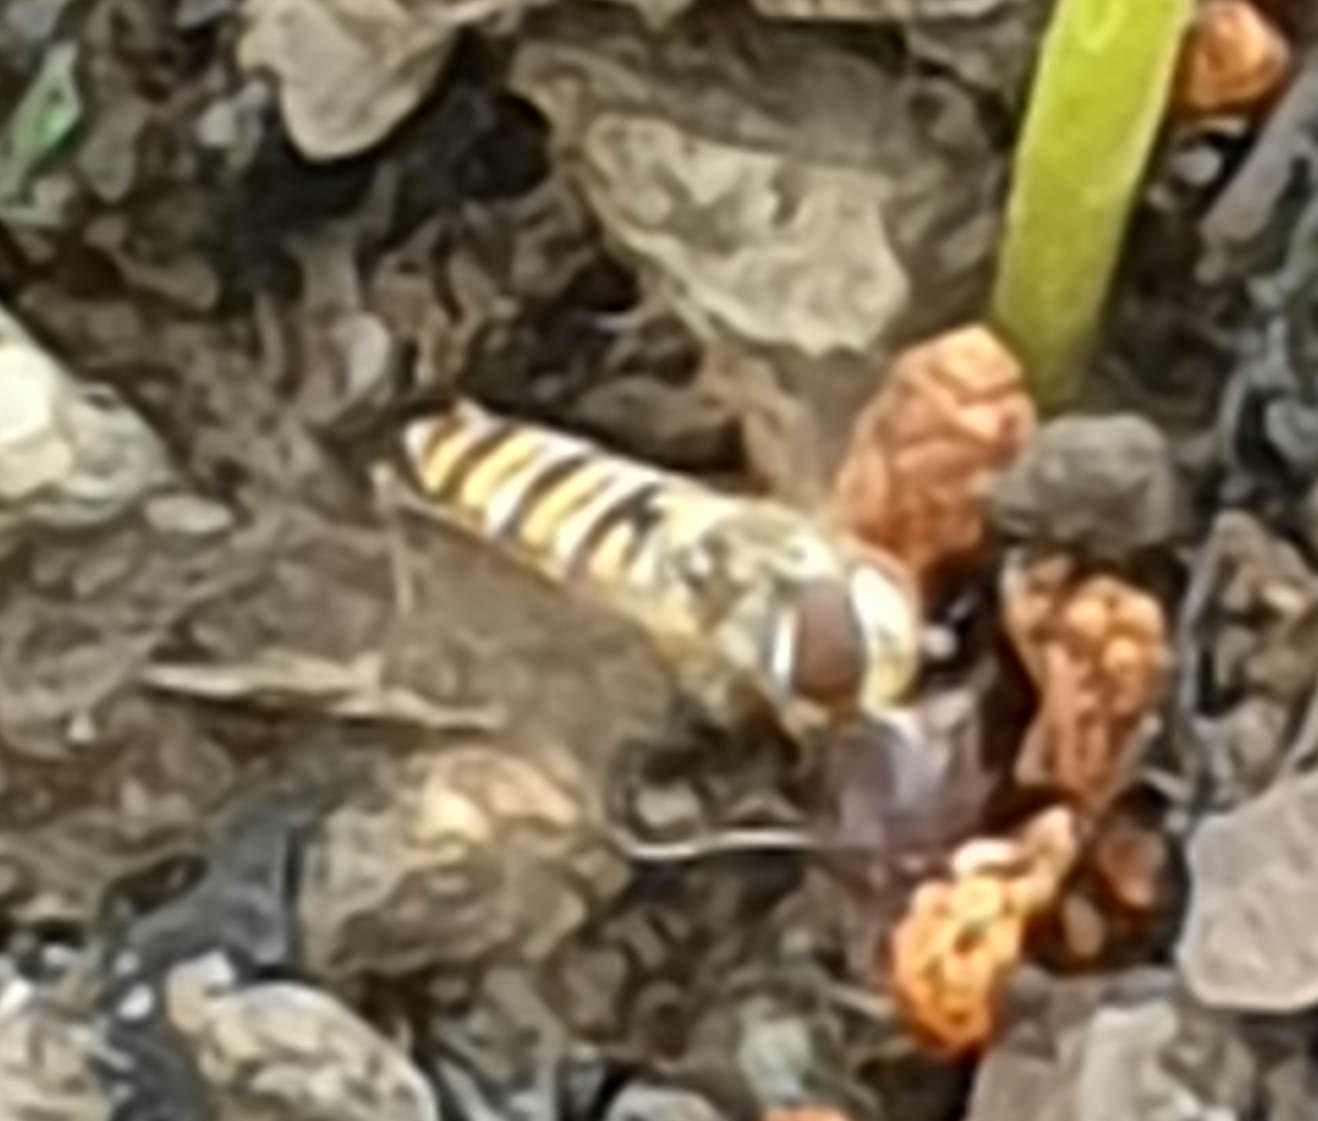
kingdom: Animalia
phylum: Arthropoda
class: Insecta
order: Diptera
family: Syrphidae
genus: Episyrphus
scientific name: Episyrphus balteatus
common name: Marmalade hoverfly
